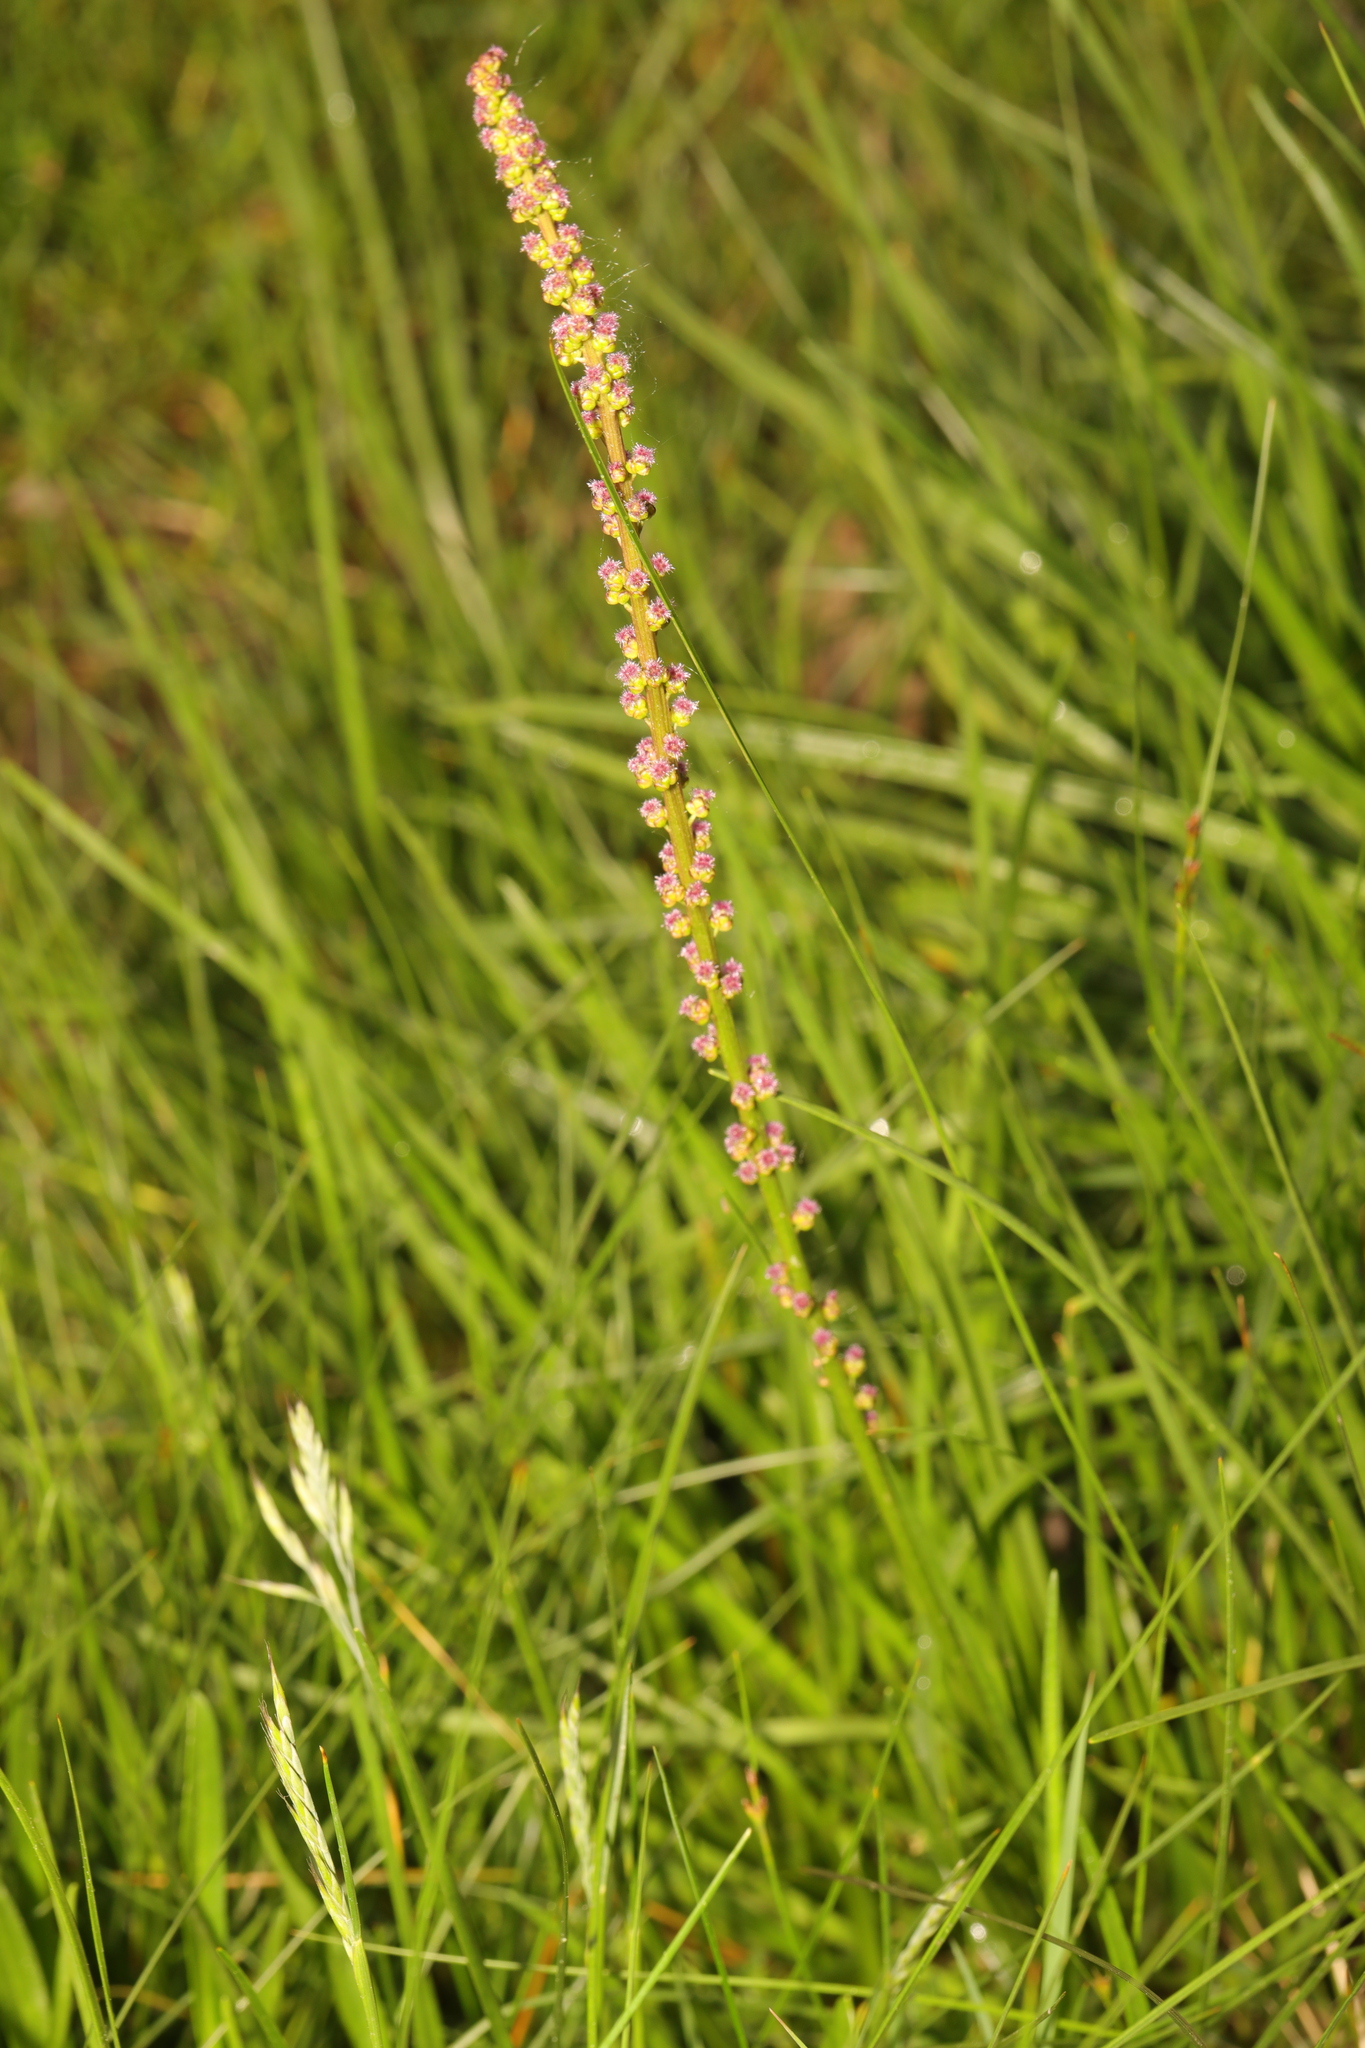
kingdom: Plantae
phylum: Tracheophyta
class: Liliopsida
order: Alismatales
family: Juncaginaceae
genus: Triglochin
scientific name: Triglochin maritima
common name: Sea arrowgrass
